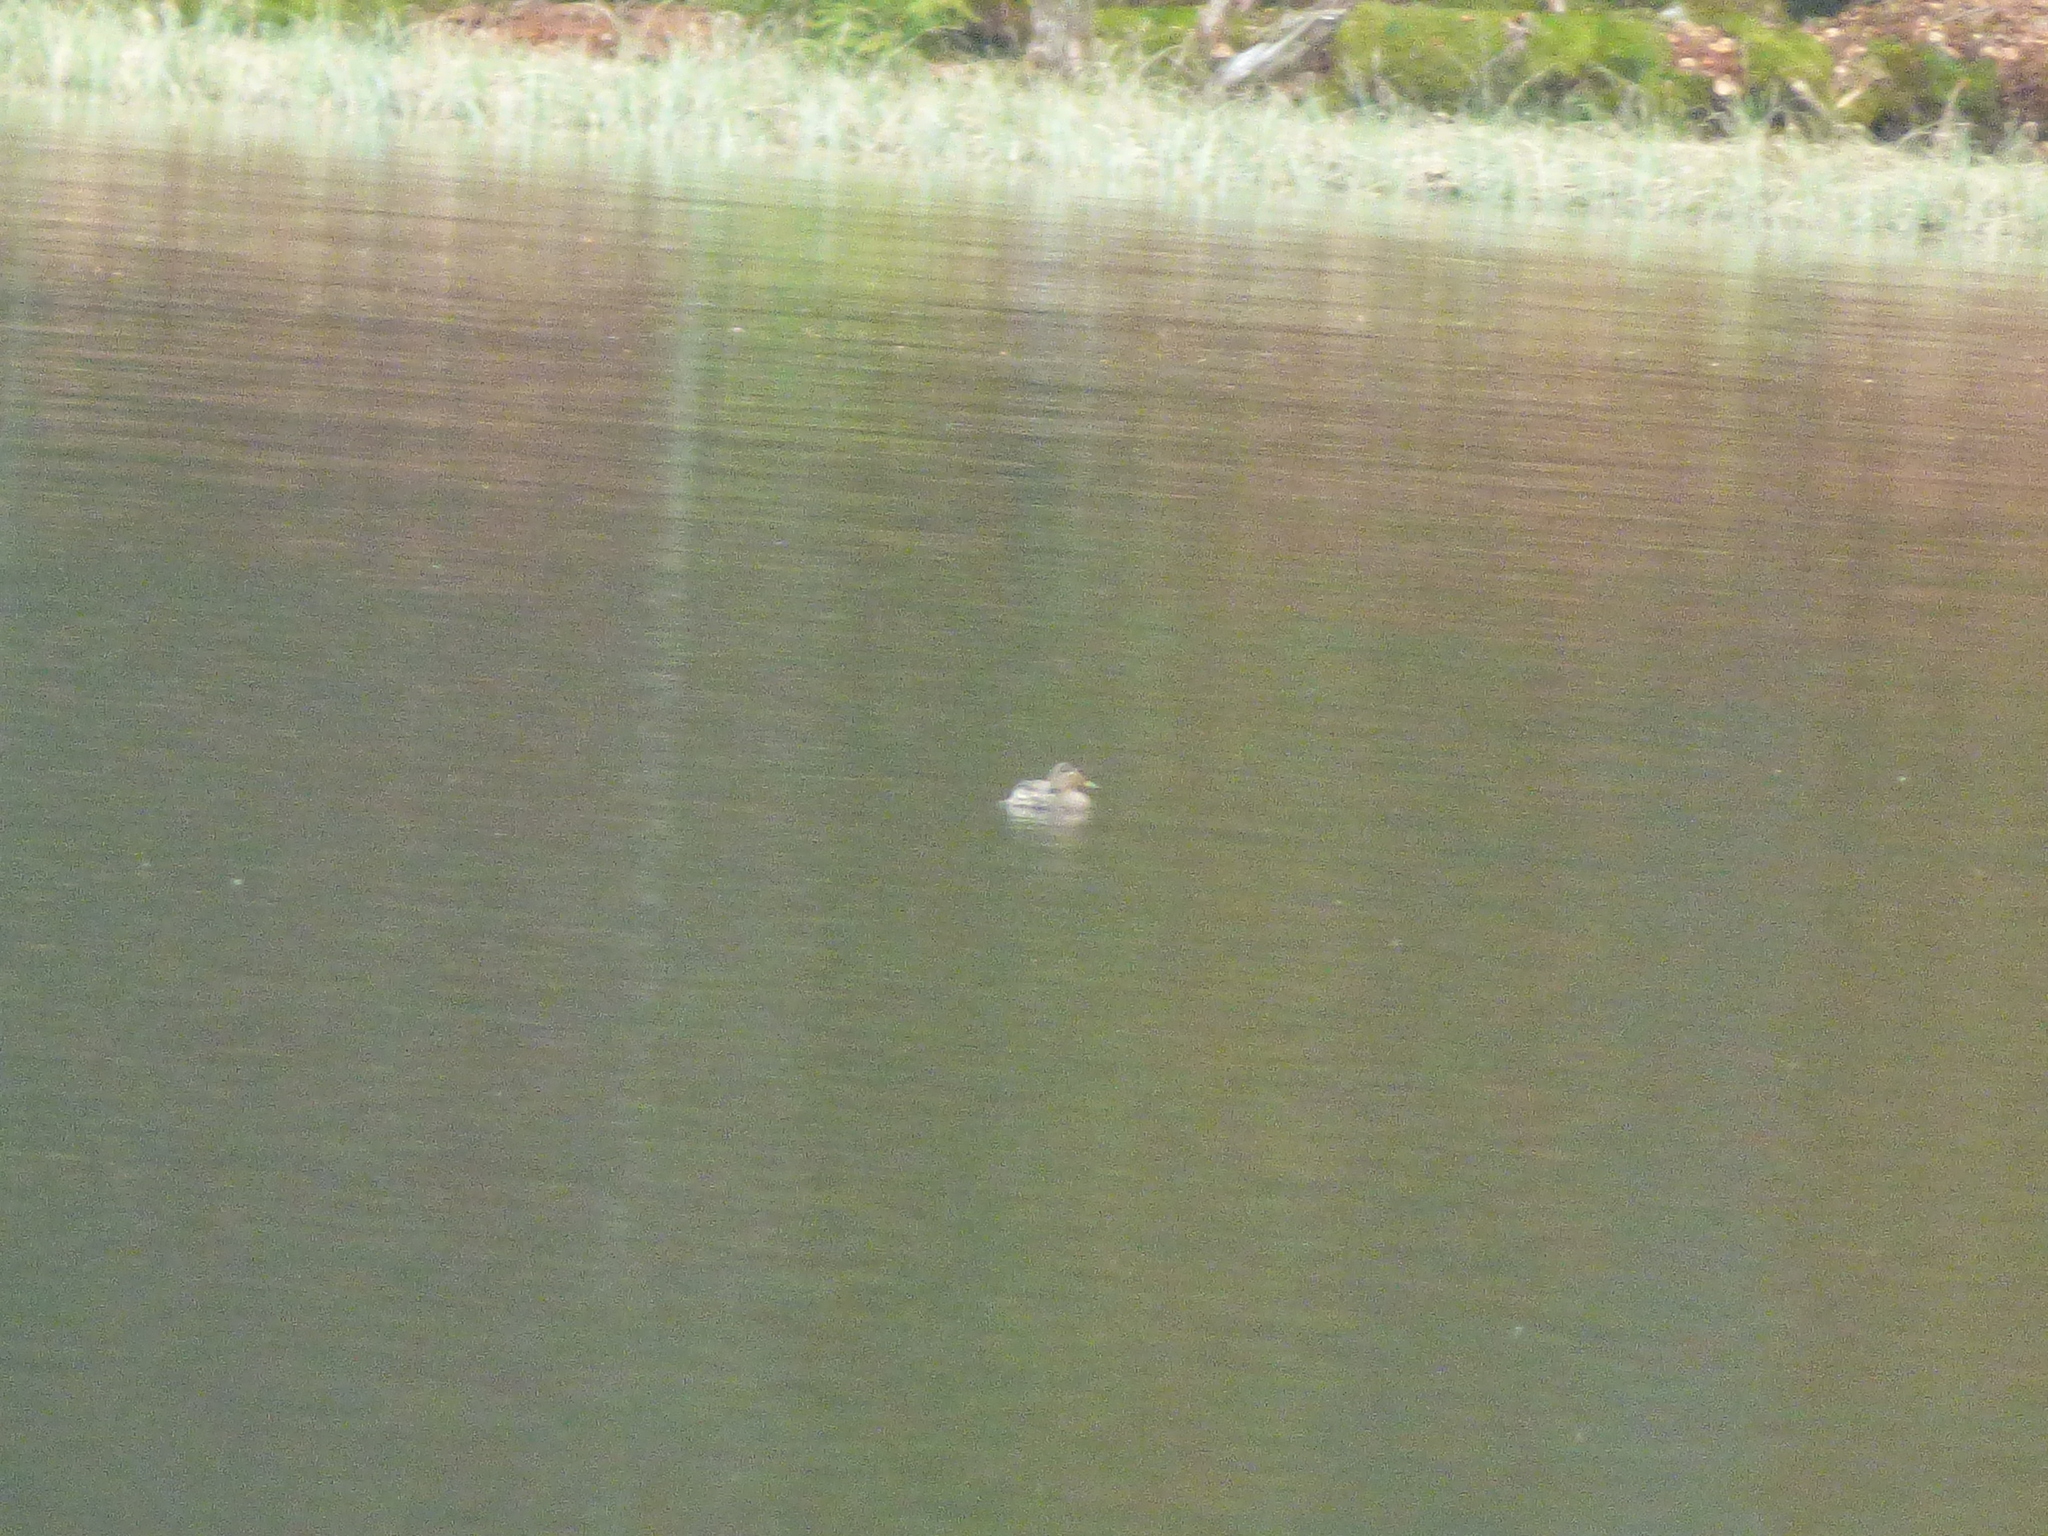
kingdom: Animalia
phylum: Chordata
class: Aves
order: Anseriformes
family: Anatidae
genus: Anas
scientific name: Anas crecca
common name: Eurasian teal
